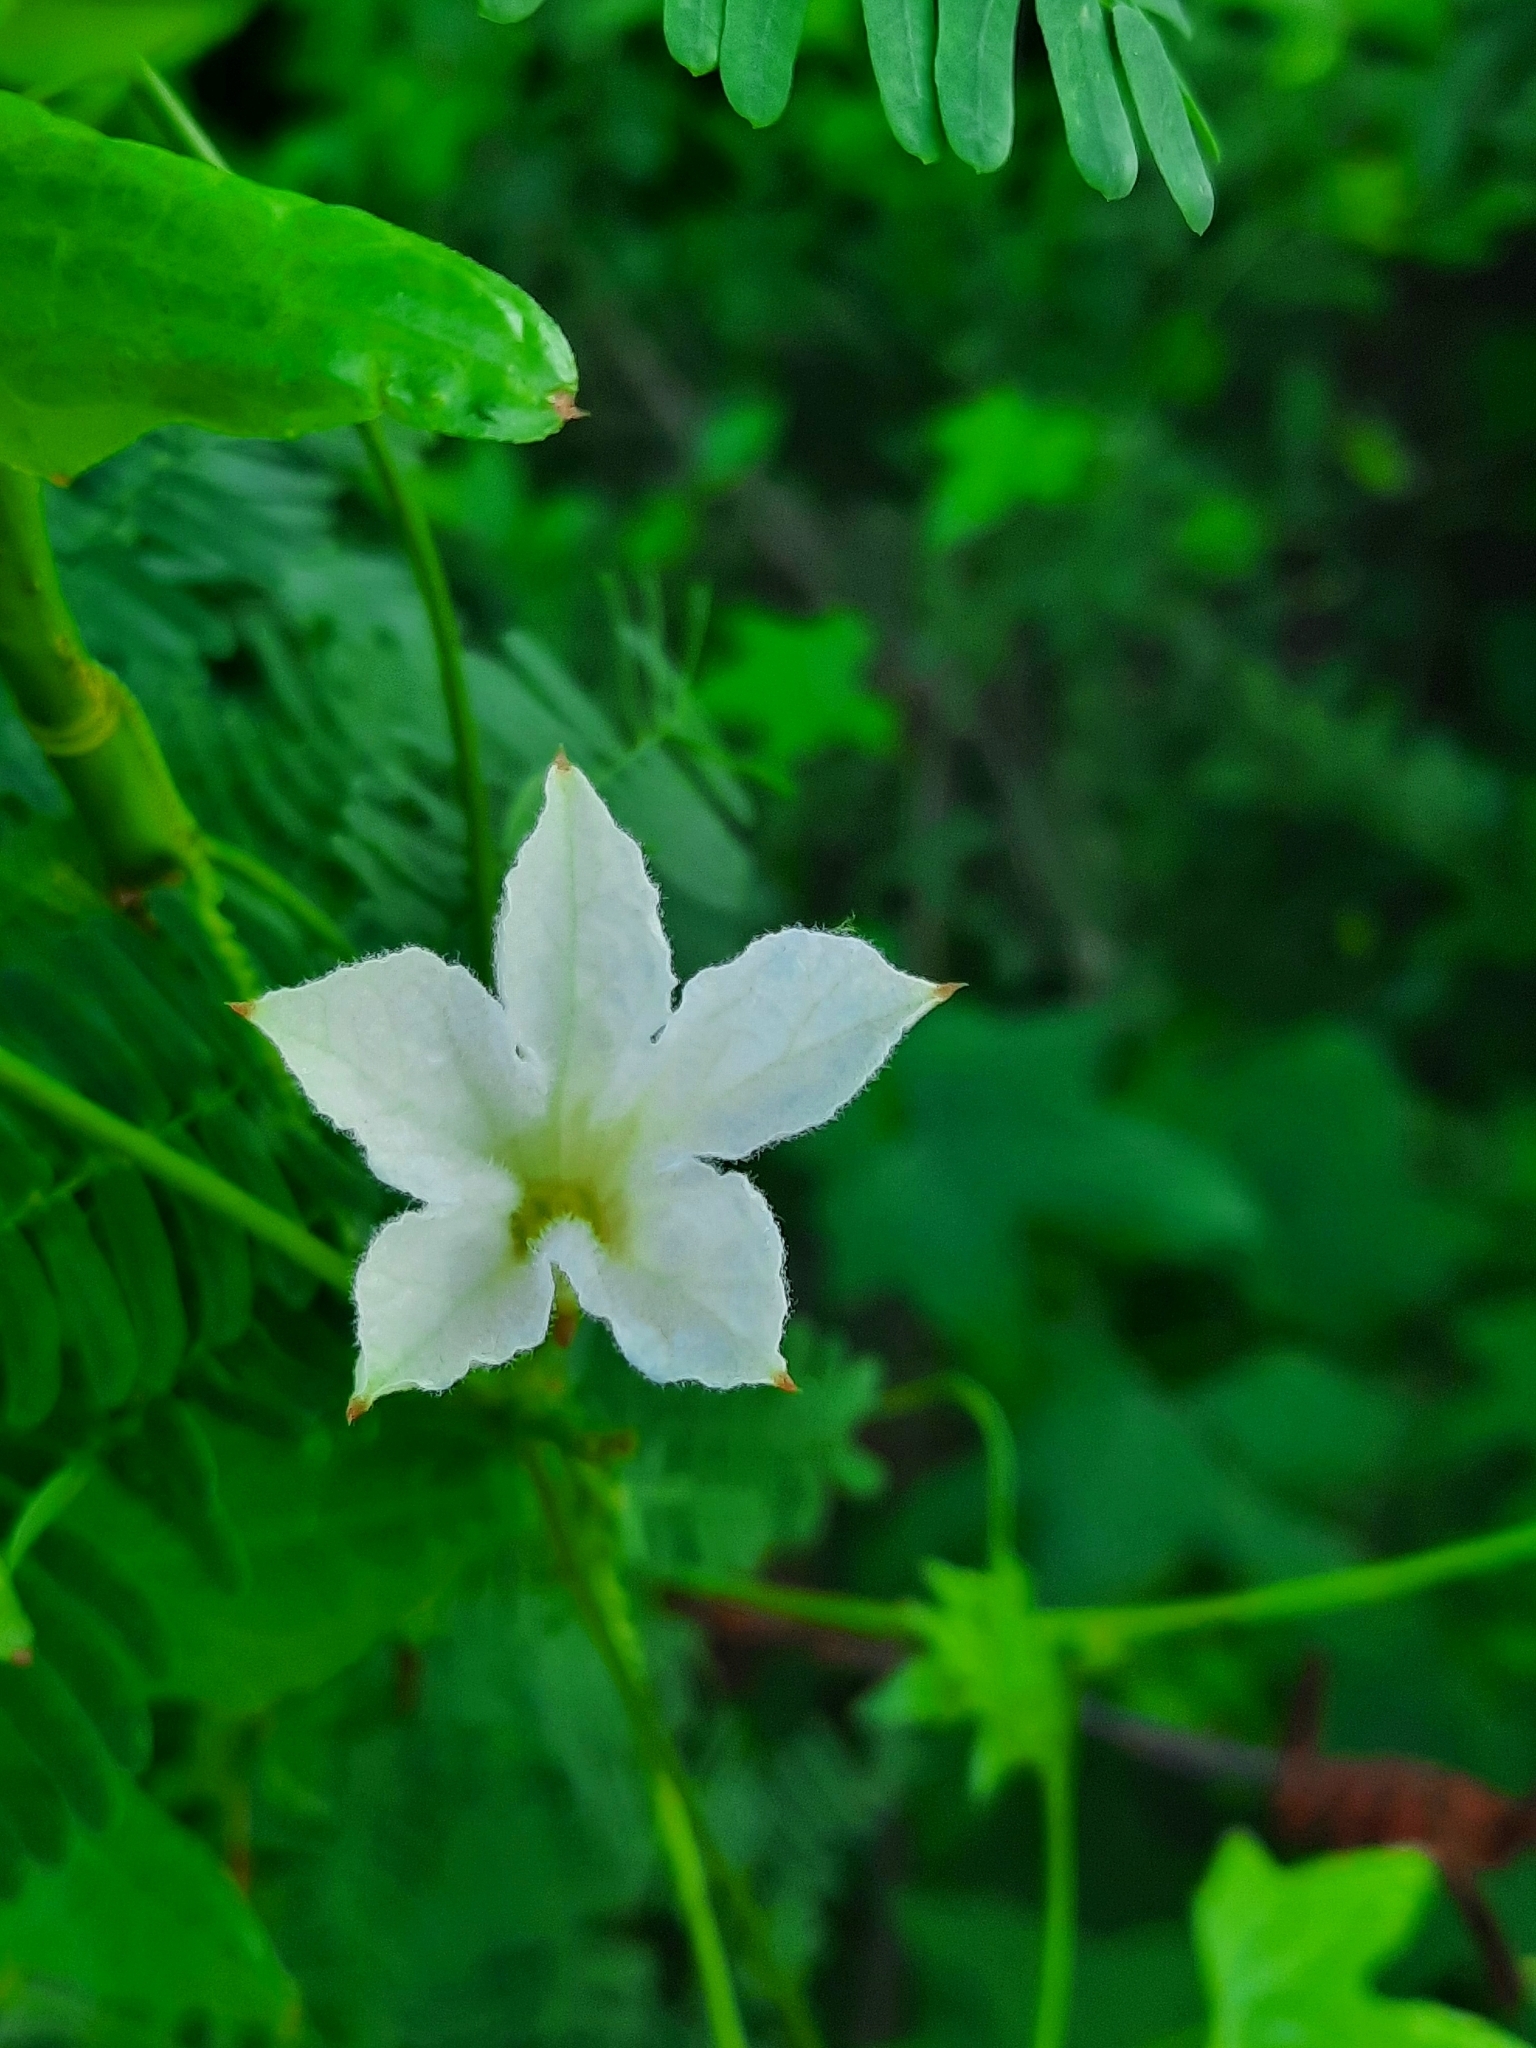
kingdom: Plantae
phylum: Tracheophyta
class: Magnoliopsida
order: Cucurbitales
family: Cucurbitaceae
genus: Coccinia
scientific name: Coccinia grandis
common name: Ivy gourd
